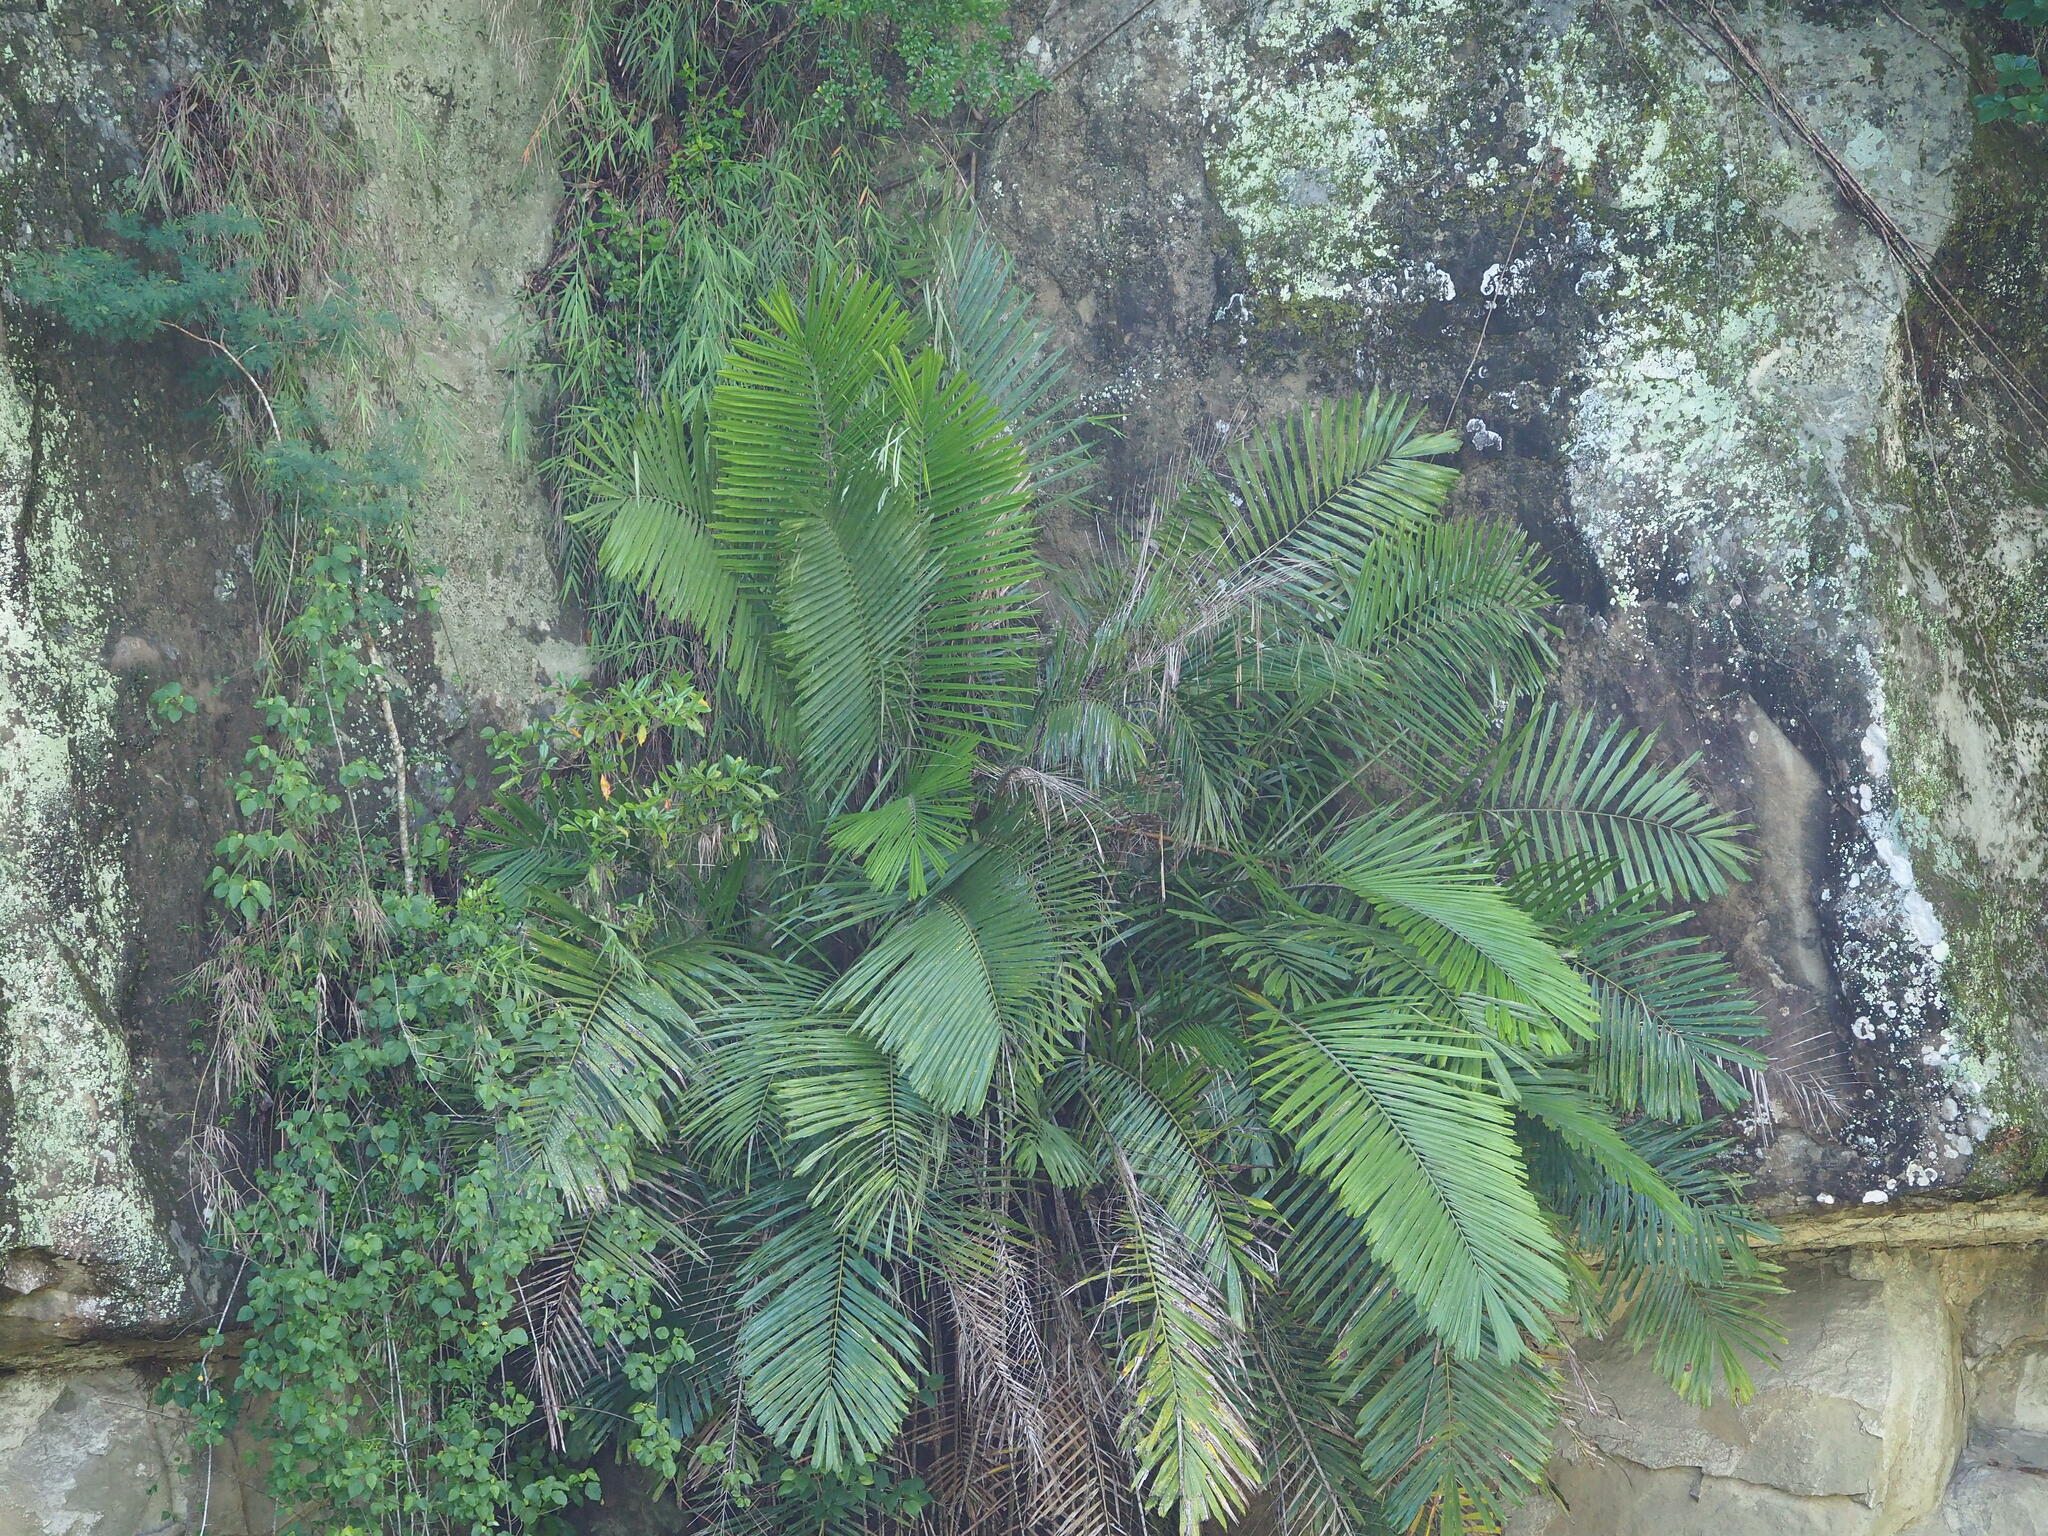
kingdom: Plantae
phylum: Tracheophyta
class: Liliopsida
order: Arecales
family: Arecaceae
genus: Arenga
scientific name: Arenga engleri
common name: Formosan sugar palm
